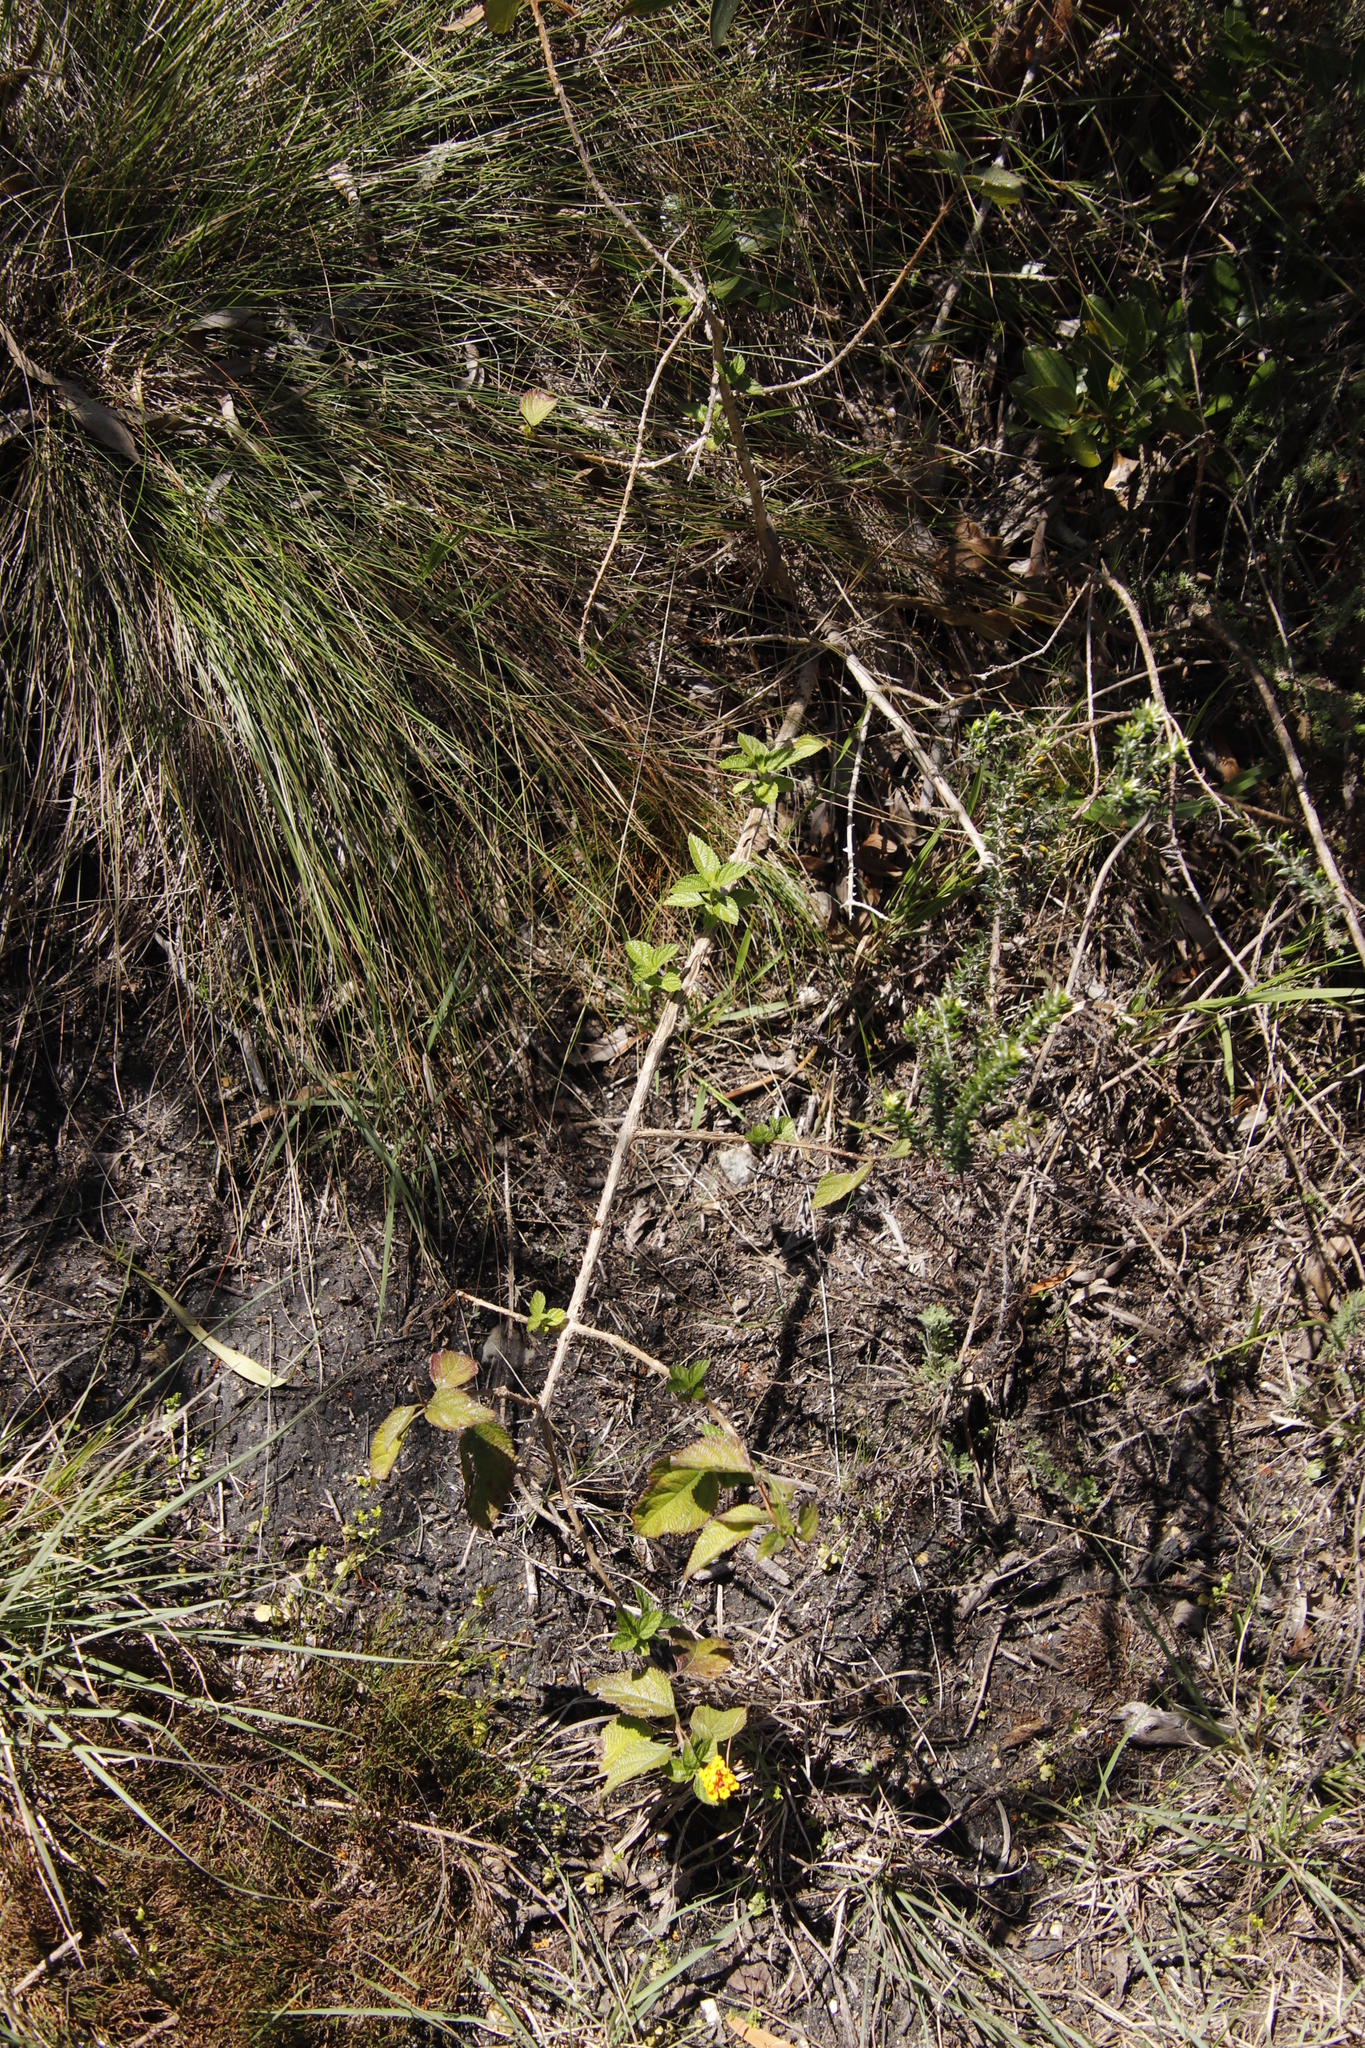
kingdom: Plantae
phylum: Tracheophyta
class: Magnoliopsida
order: Lamiales
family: Verbenaceae
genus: Lantana
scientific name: Lantana camara
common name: Lantana
